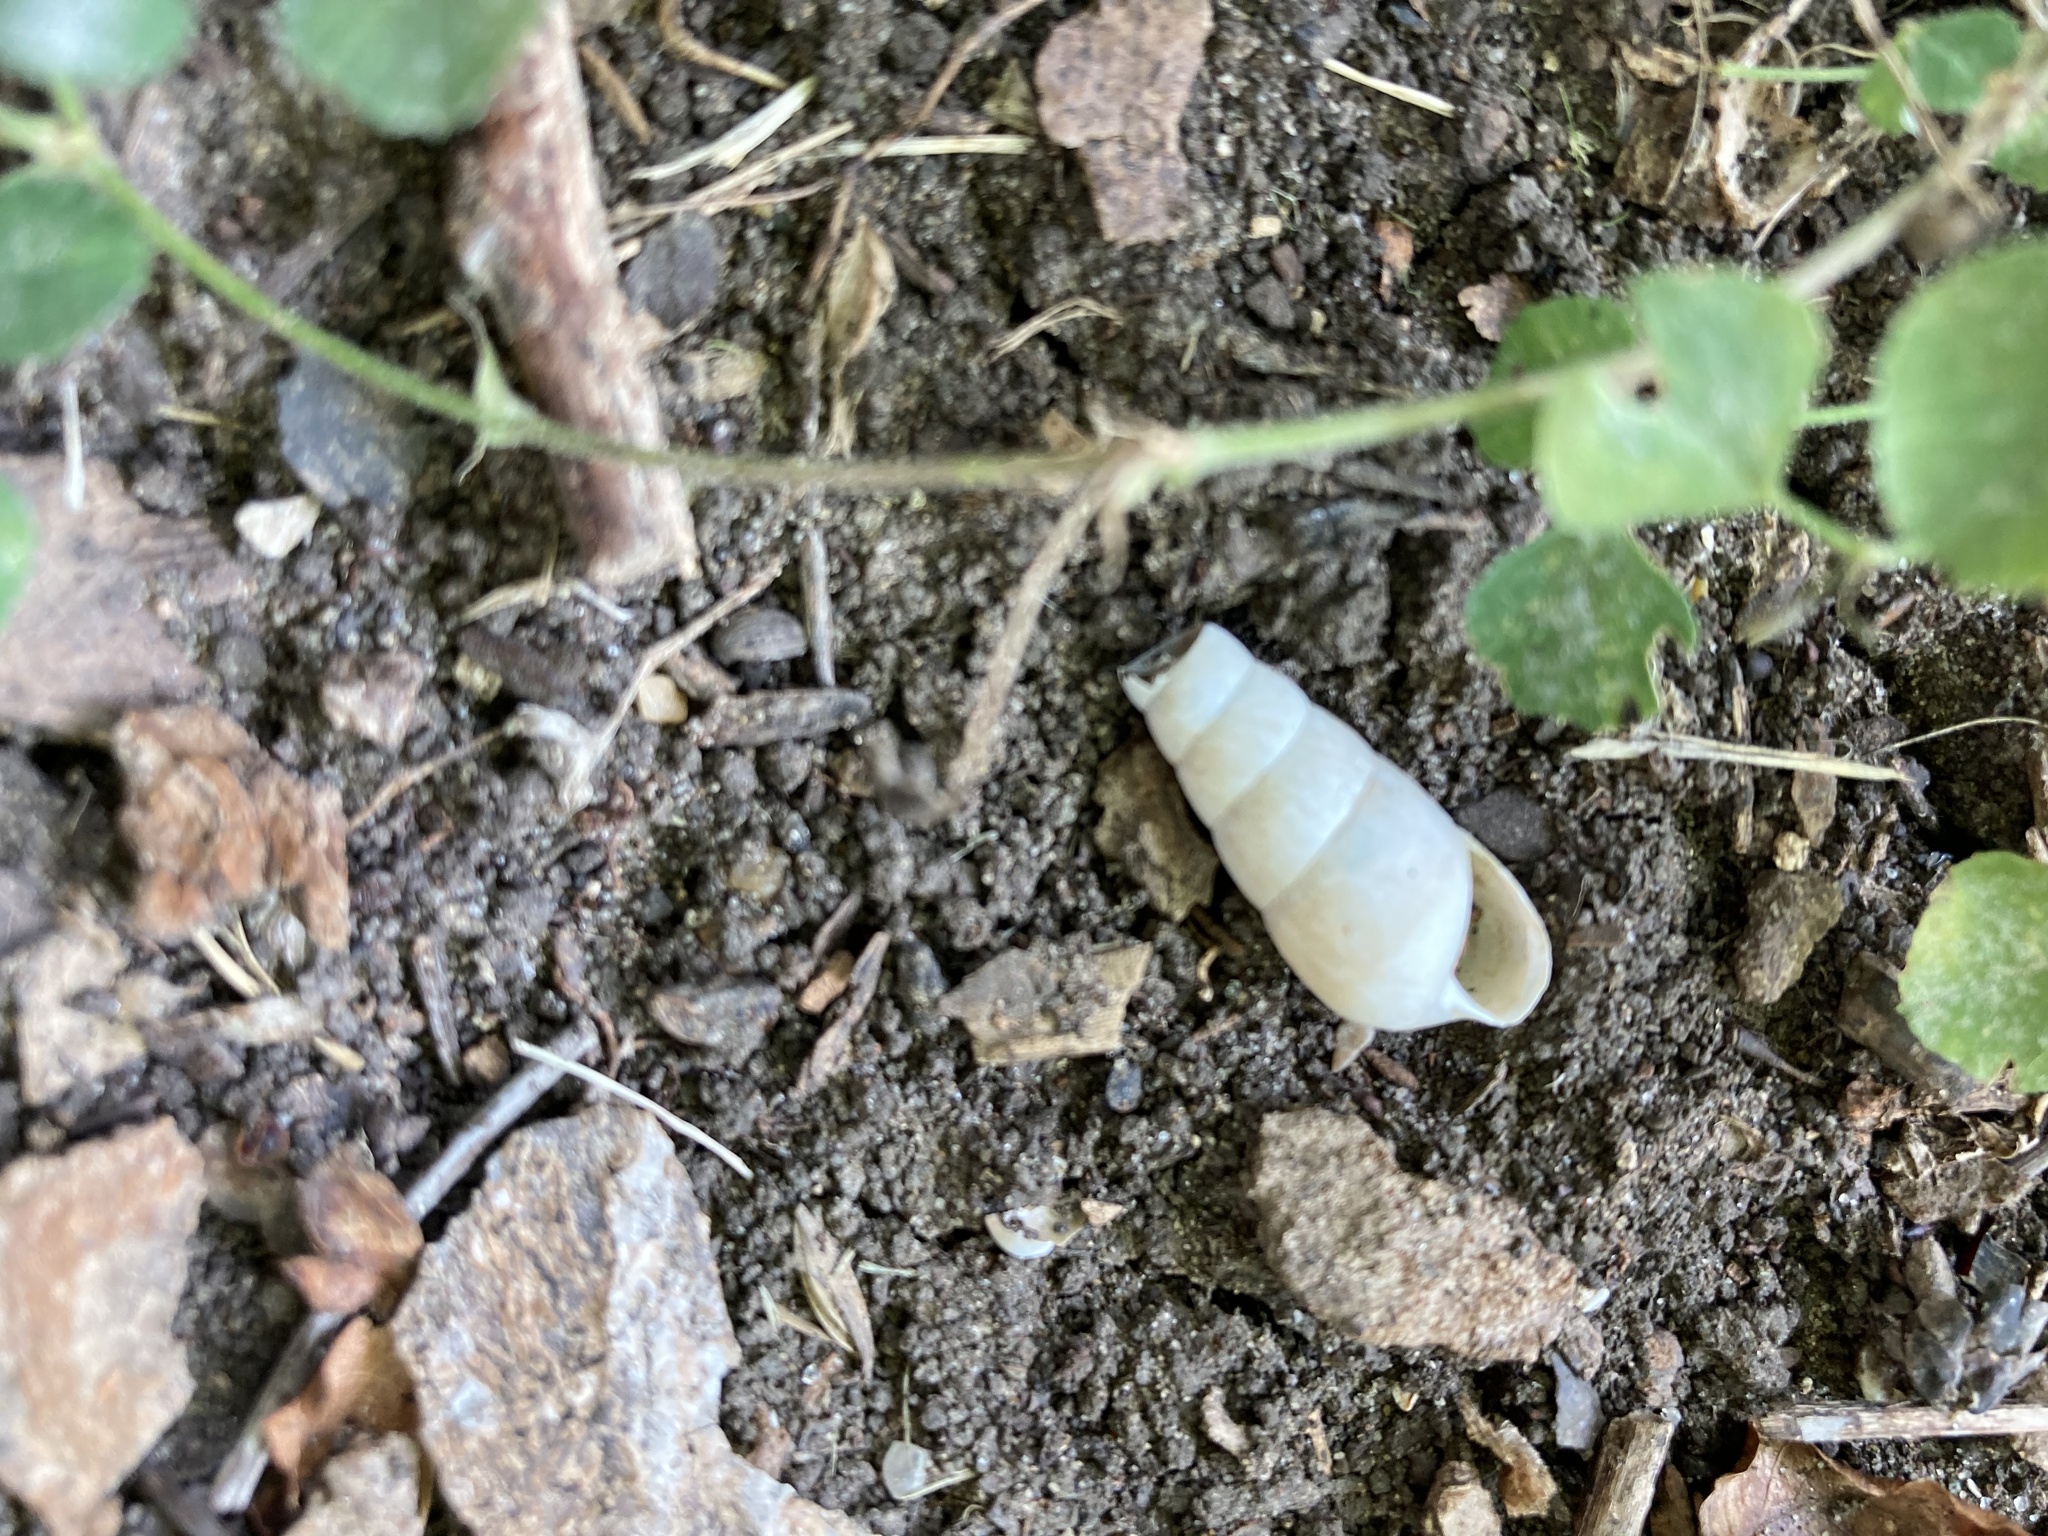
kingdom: Animalia
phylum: Mollusca
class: Gastropoda
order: Stylommatophora
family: Achatinidae
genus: Rumina
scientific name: Rumina decollata
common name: Decollate snail
